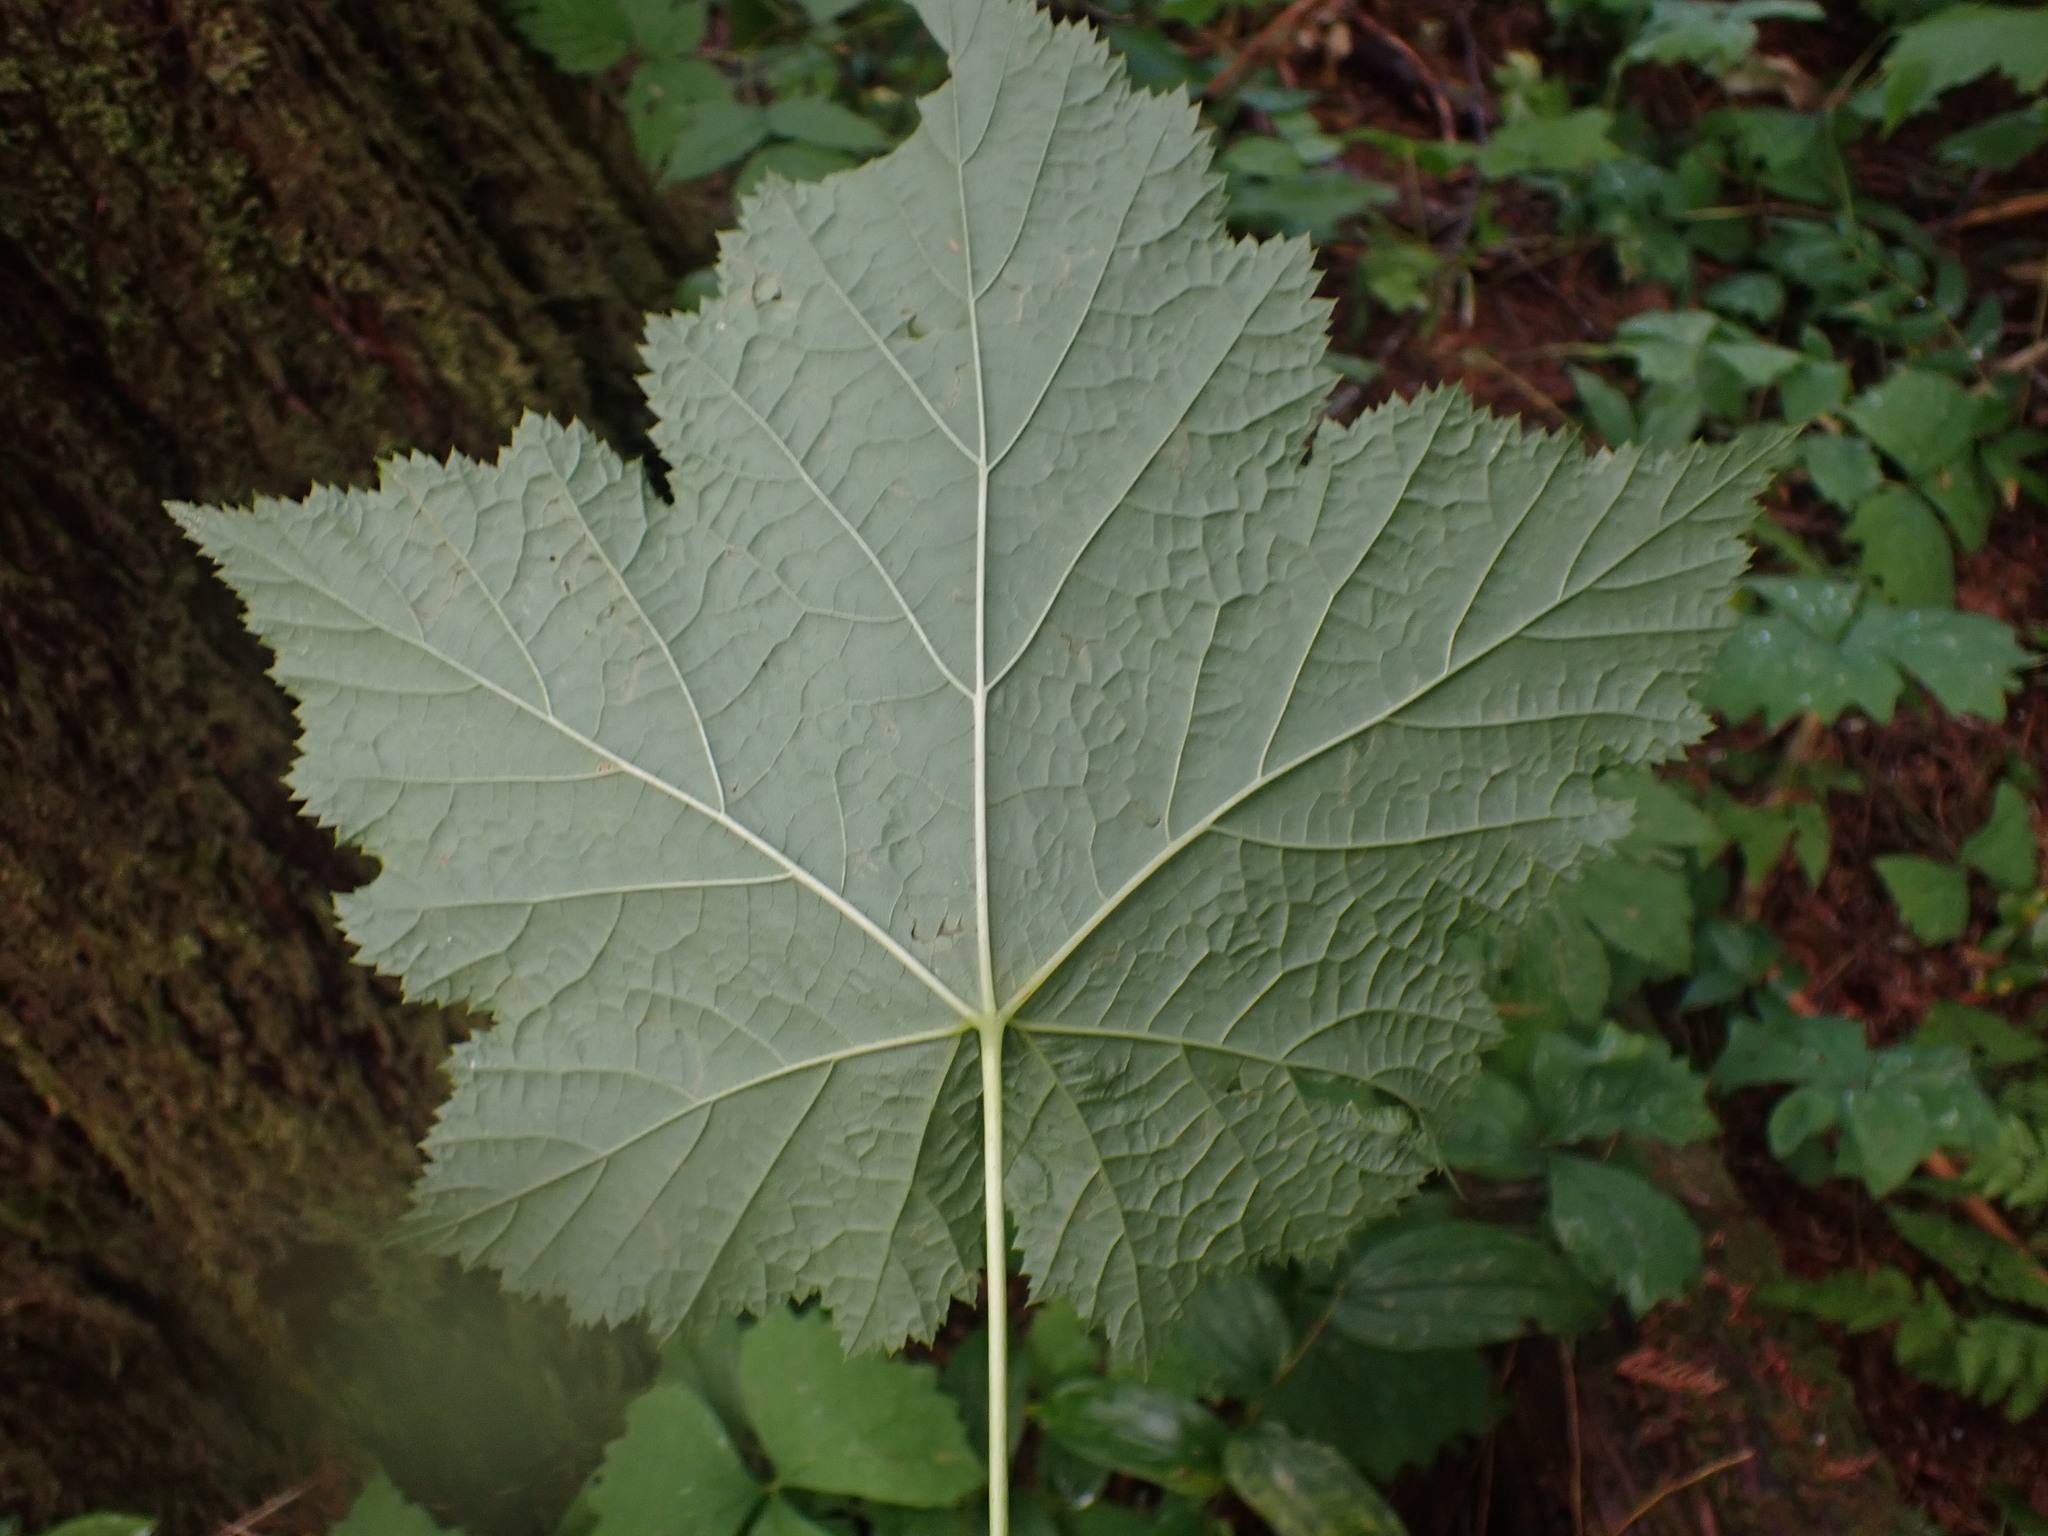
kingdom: Plantae
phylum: Tracheophyta
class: Magnoliopsida
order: Rosales
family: Rosaceae
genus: Rubus
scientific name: Rubus parviflorus
